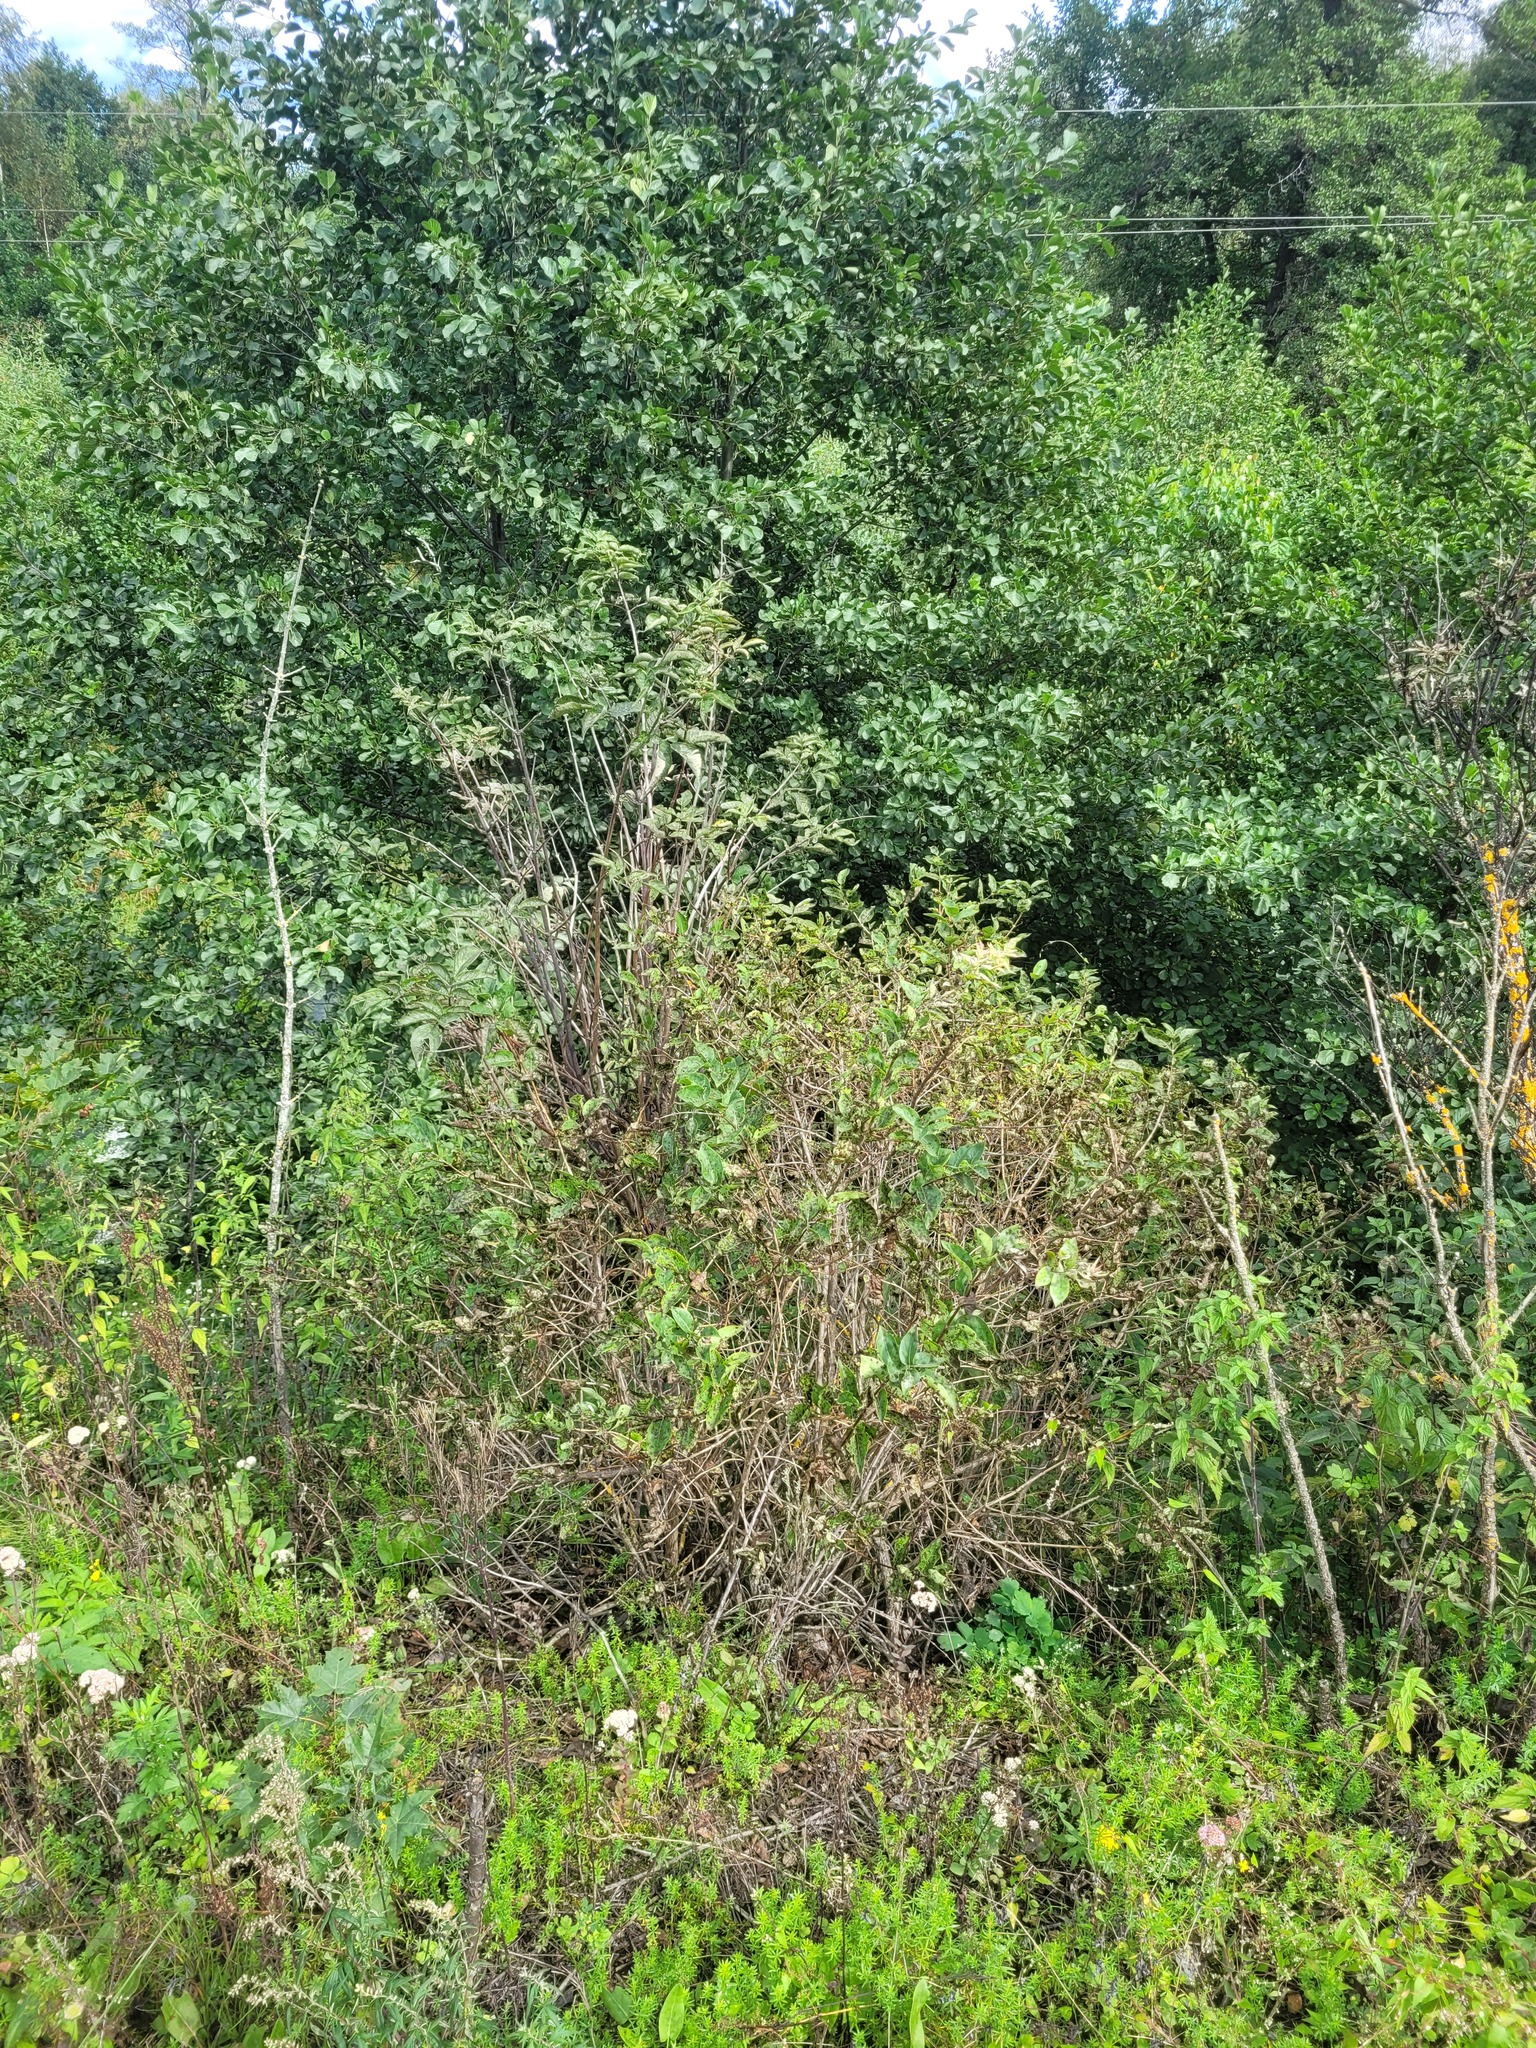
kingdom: Plantae
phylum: Tracheophyta
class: Magnoliopsida
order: Dipsacales
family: Caprifoliaceae
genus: Lonicera
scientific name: Lonicera tatarica
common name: Tatarian honeysuckle
